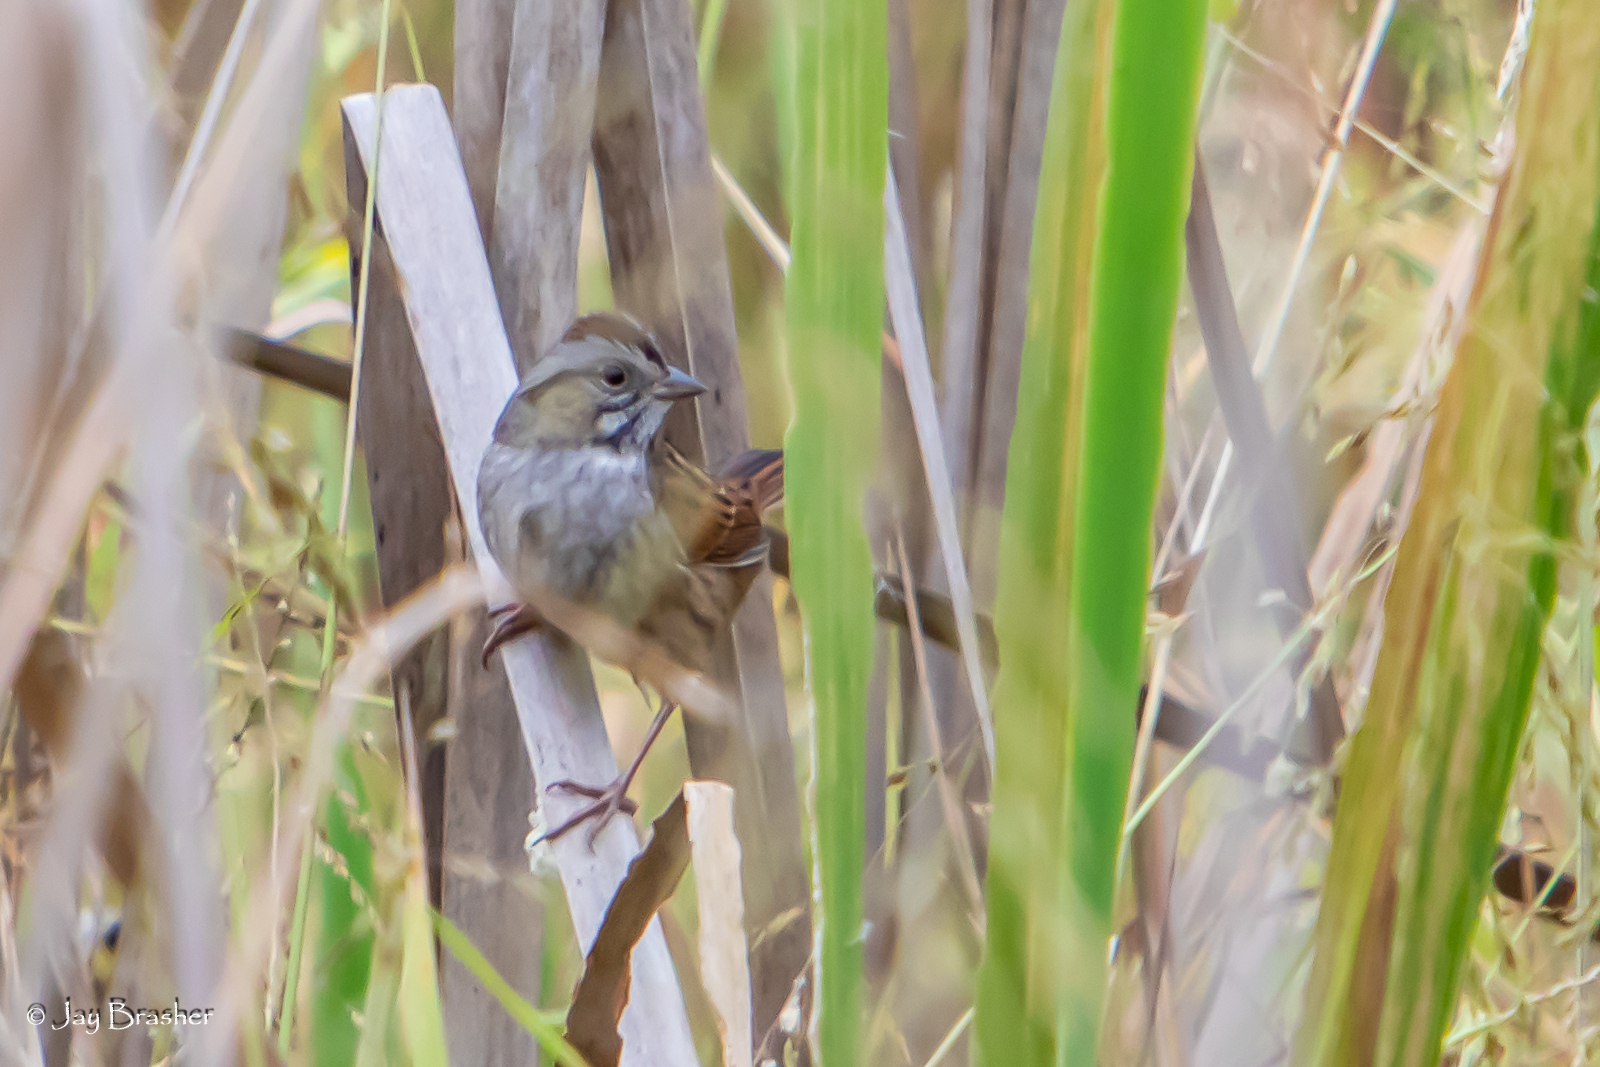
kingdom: Animalia
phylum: Chordata
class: Aves
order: Passeriformes
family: Passerellidae
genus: Melospiza
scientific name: Melospiza georgiana
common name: Swamp sparrow
